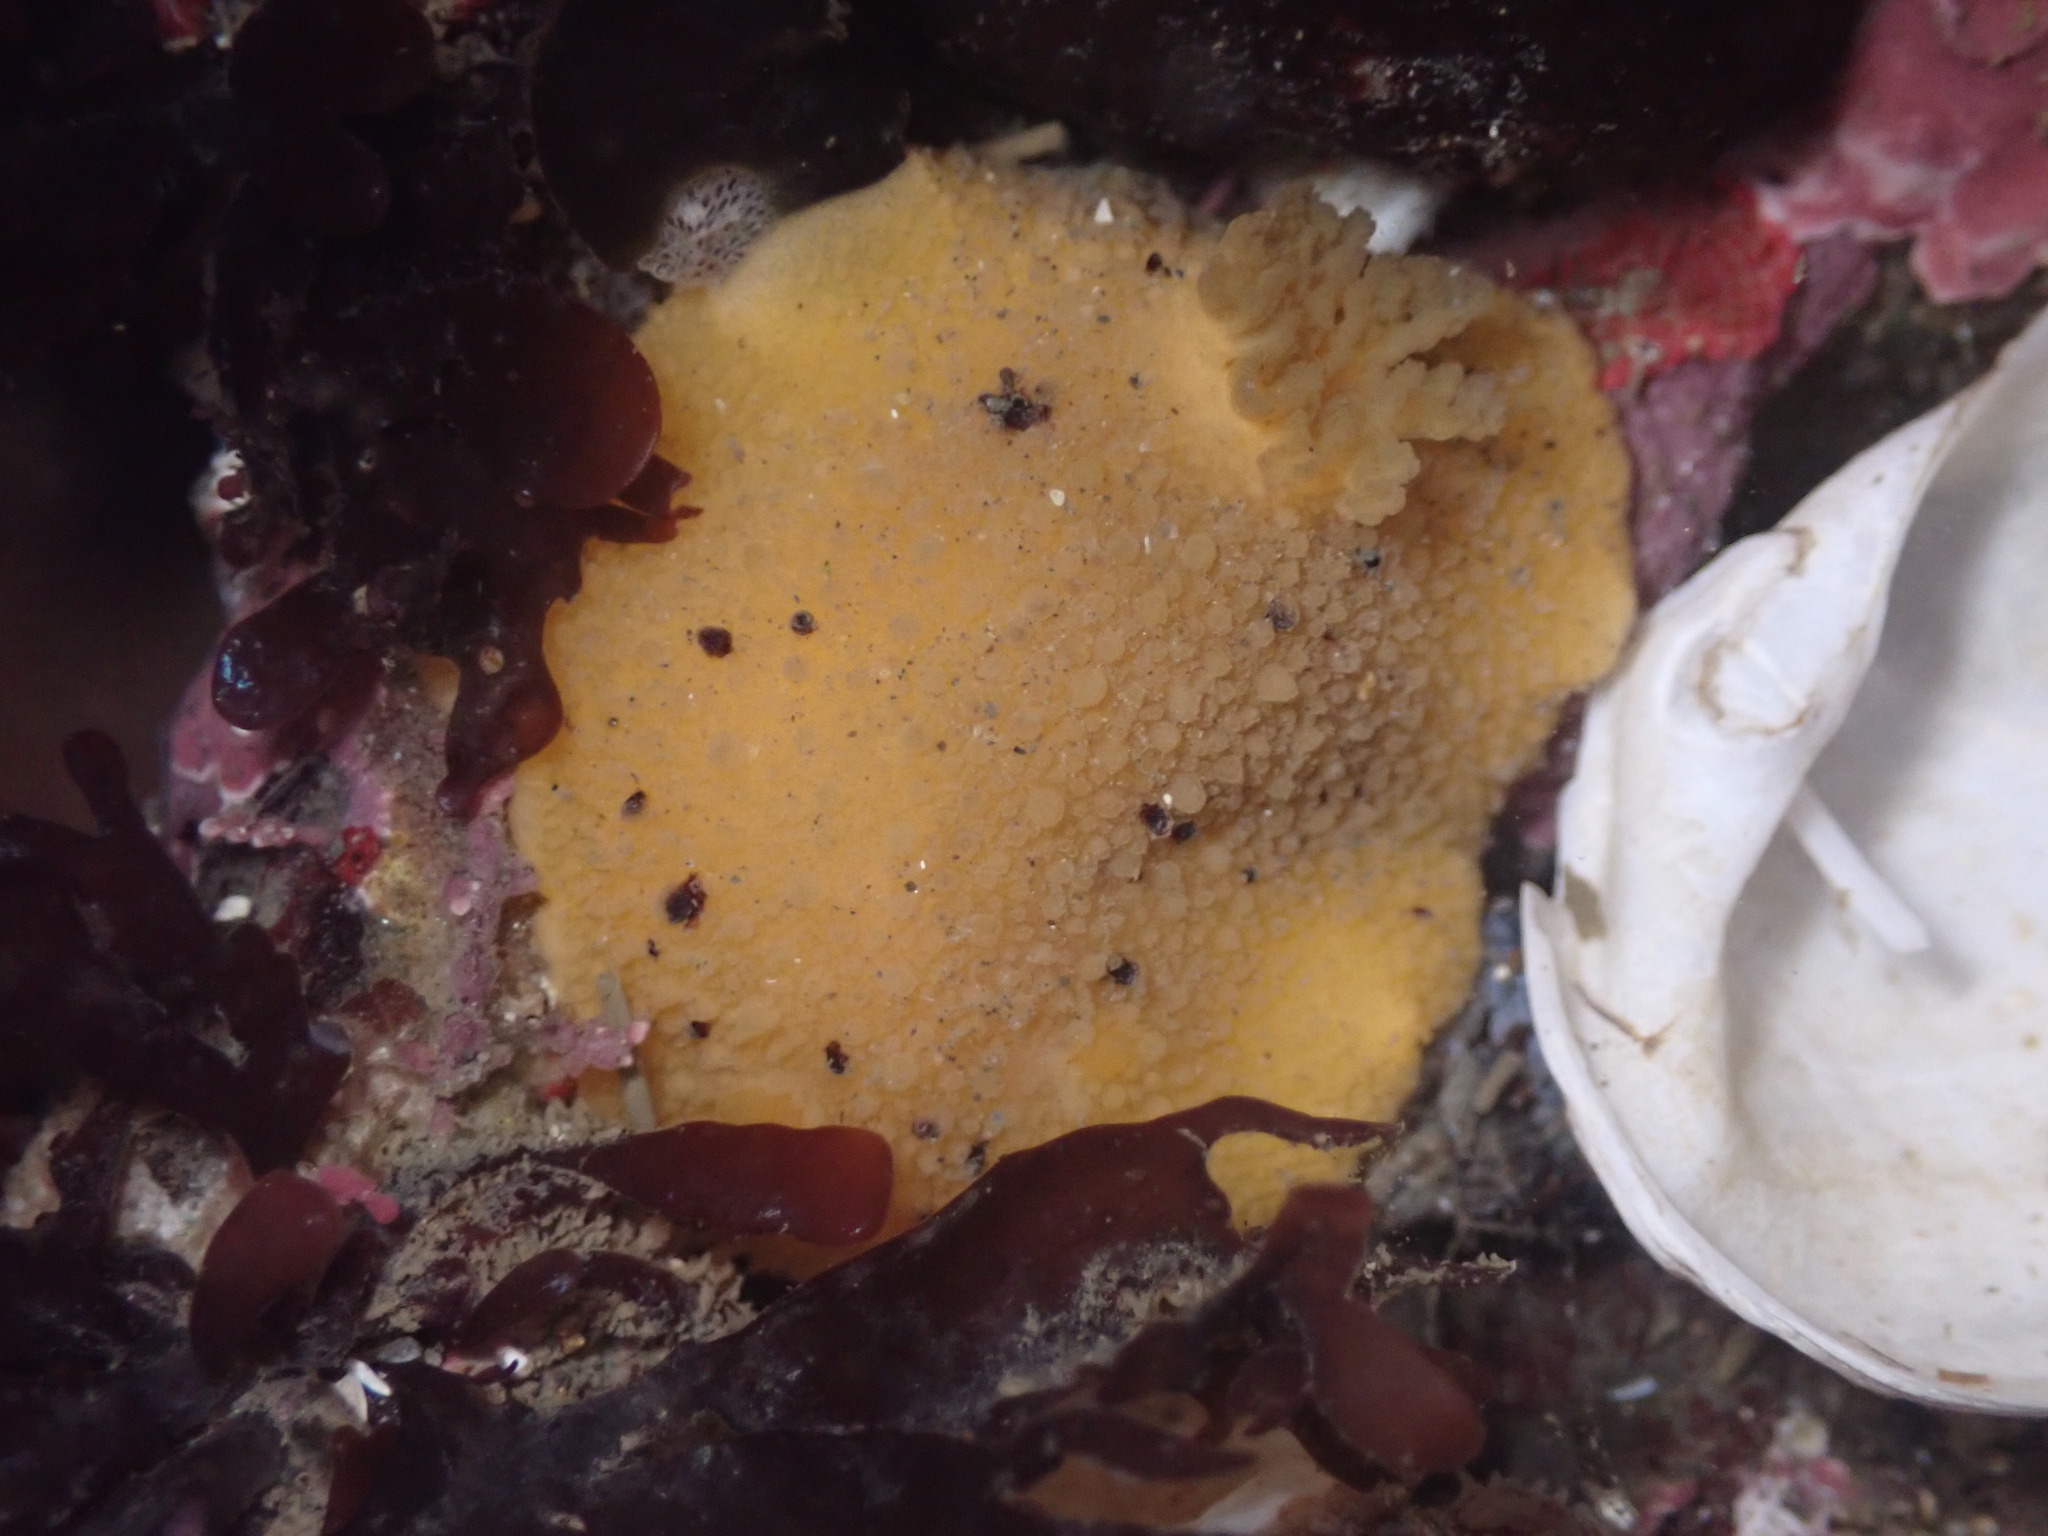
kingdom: Animalia
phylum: Mollusca
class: Gastropoda
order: Nudibranchia
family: Dorididae
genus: Doris
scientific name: Doris montereyensis
